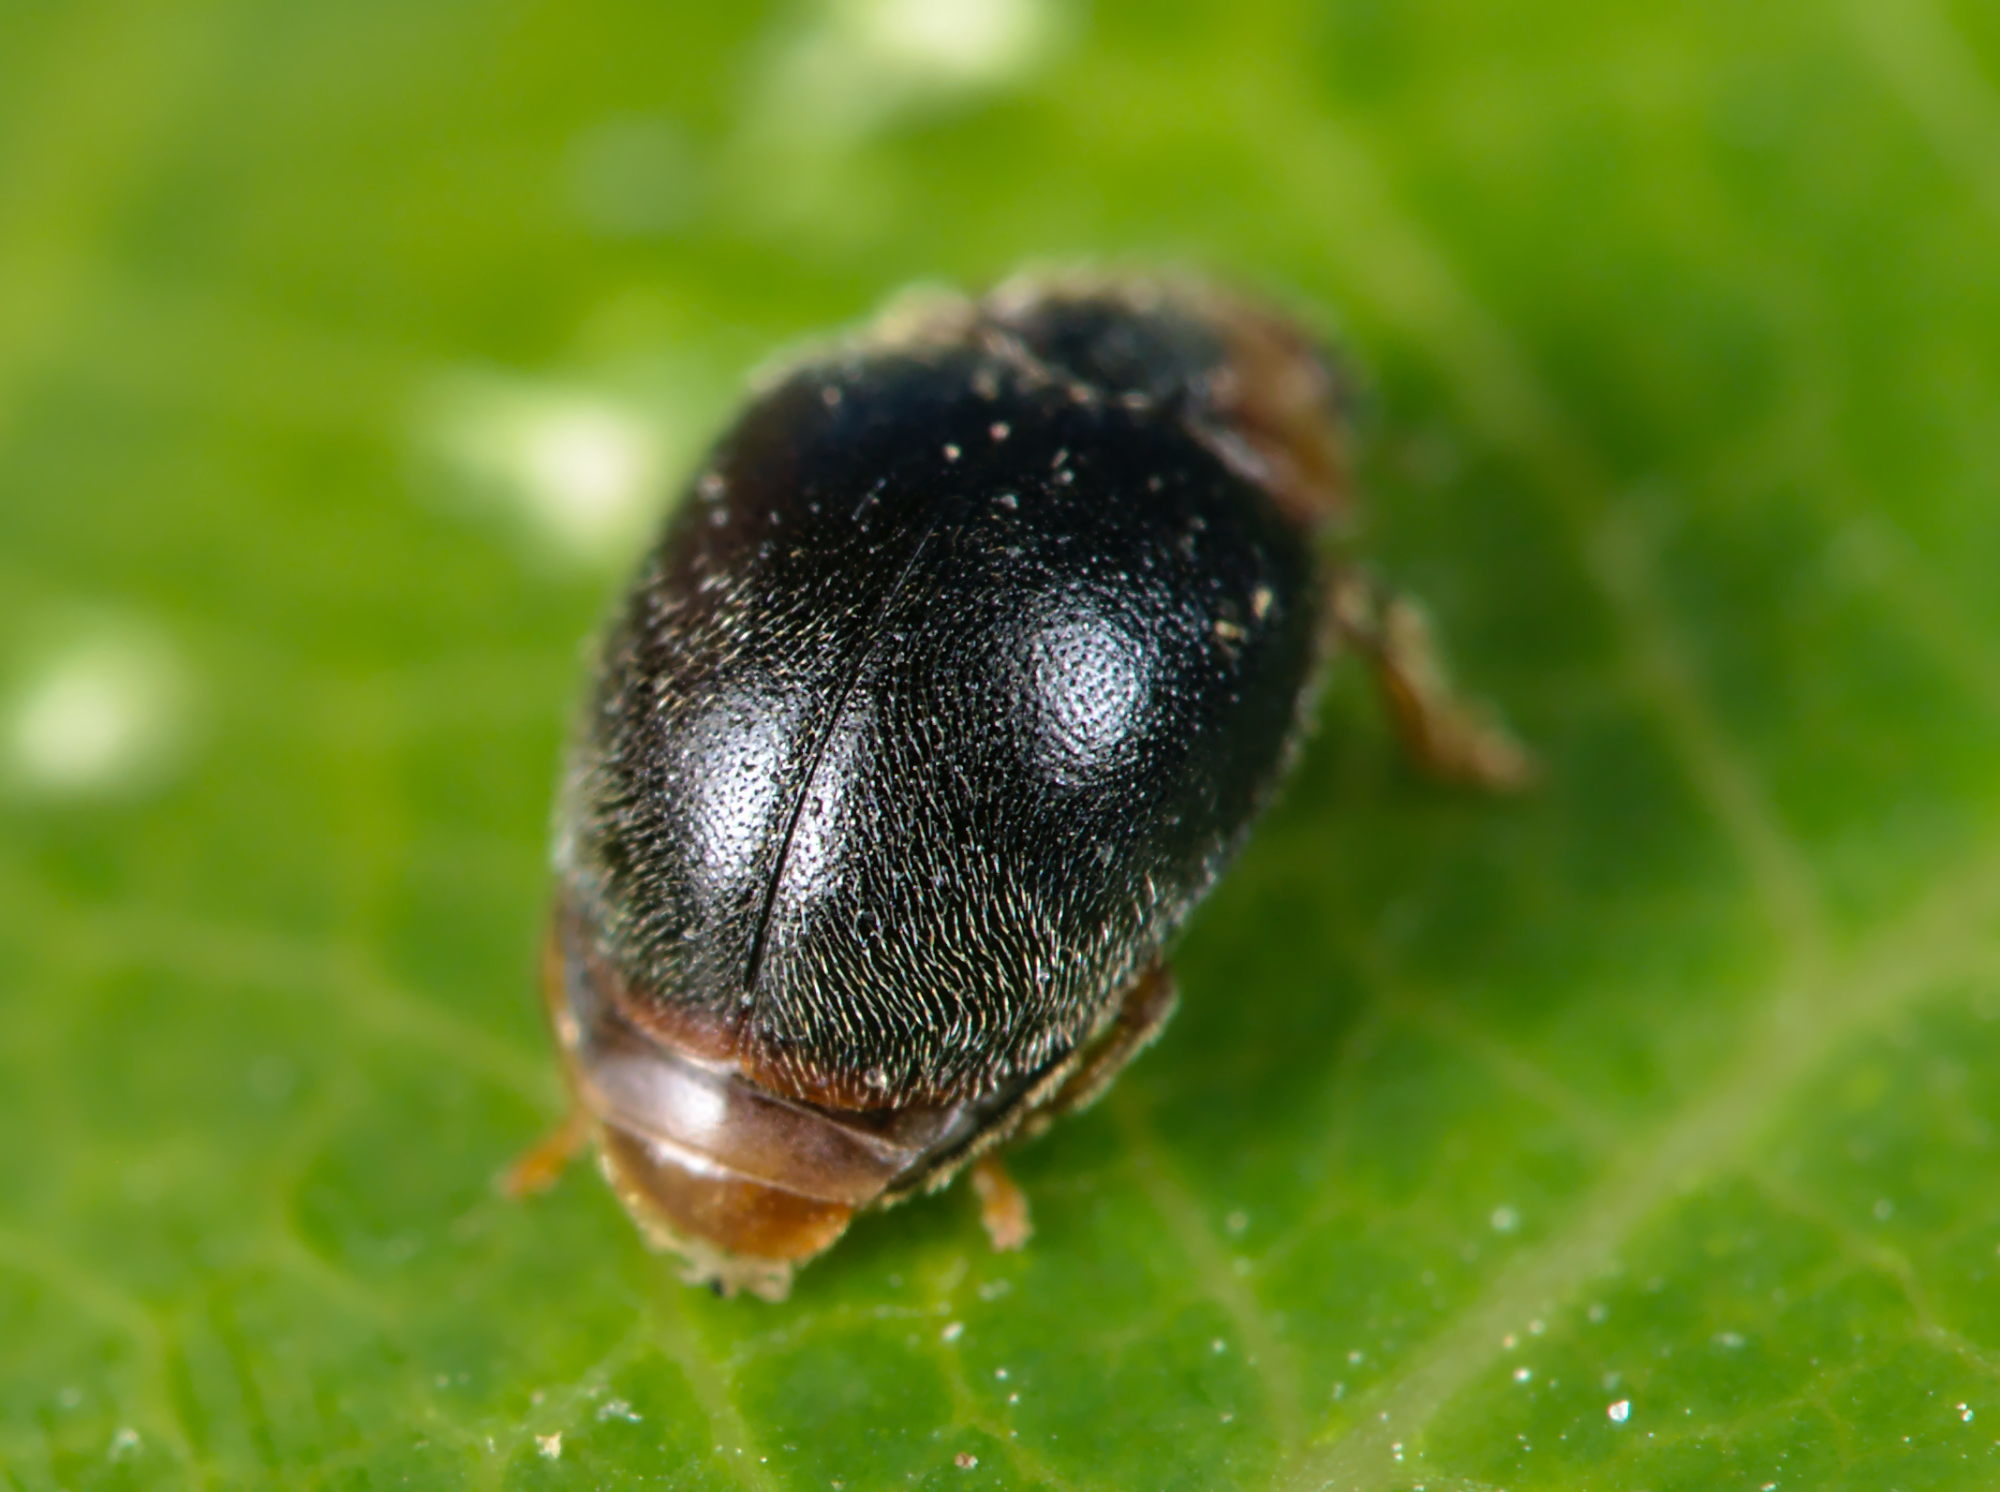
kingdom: Animalia
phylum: Arthropoda
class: Insecta
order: Coleoptera
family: Coccinellidae
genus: Scymnus
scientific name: Scymnus auritus
